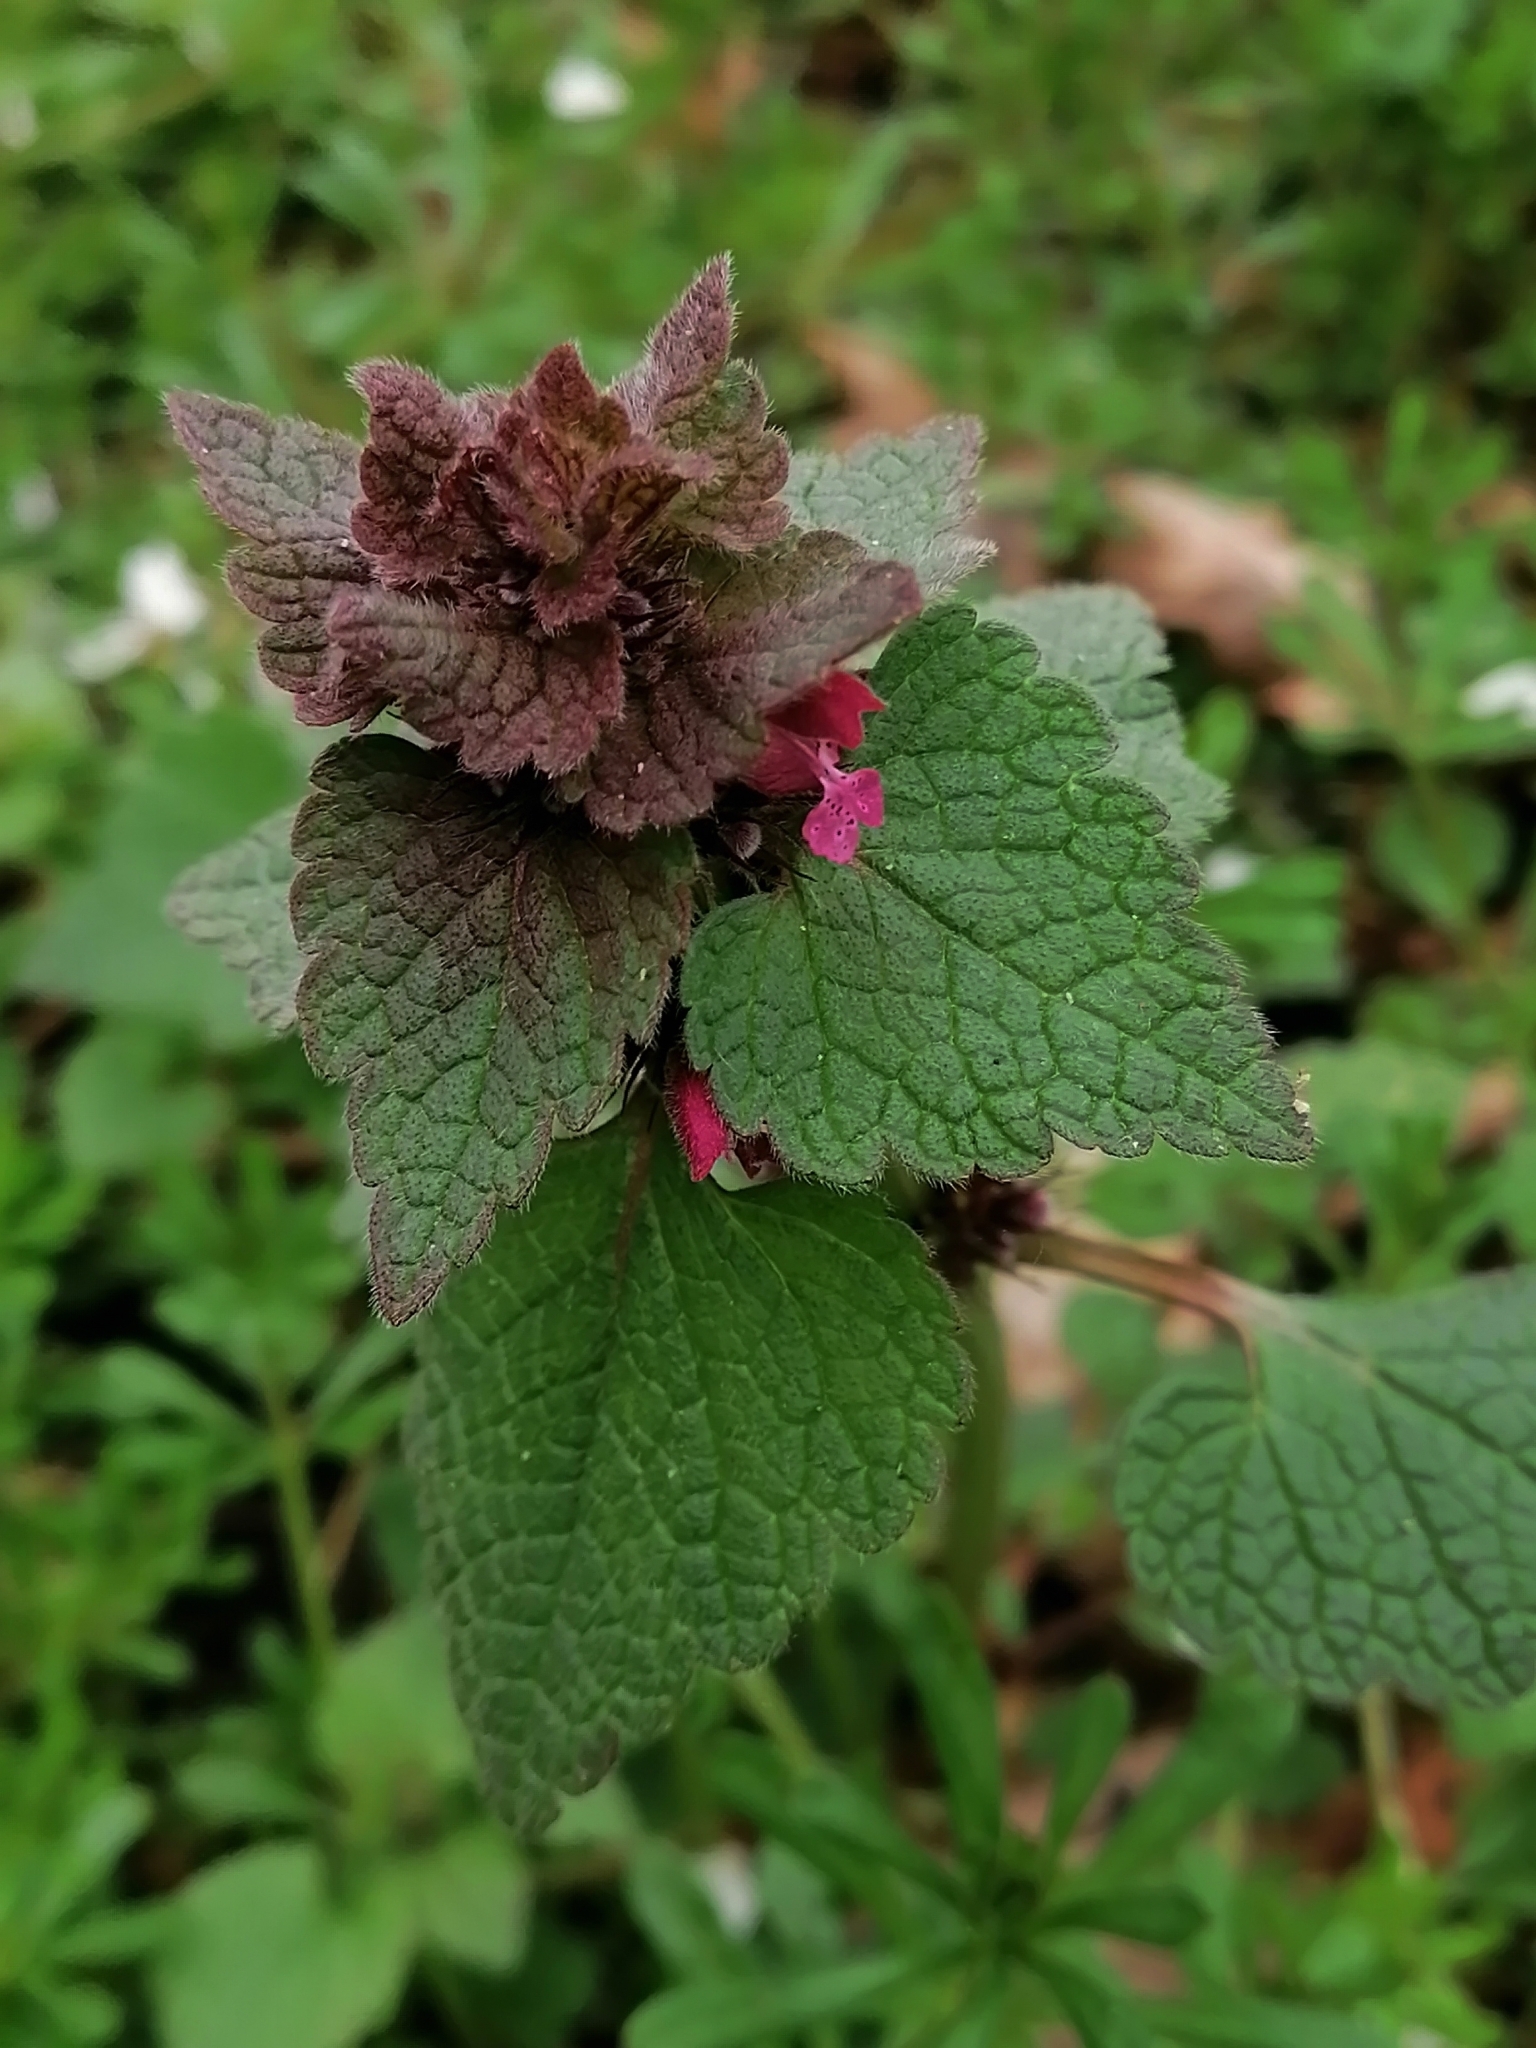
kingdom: Plantae
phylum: Tracheophyta
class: Magnoliopsida
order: Lamiales
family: Lamiaceae
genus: Lamium
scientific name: Lamium purpureum
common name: Red dead-nettle
